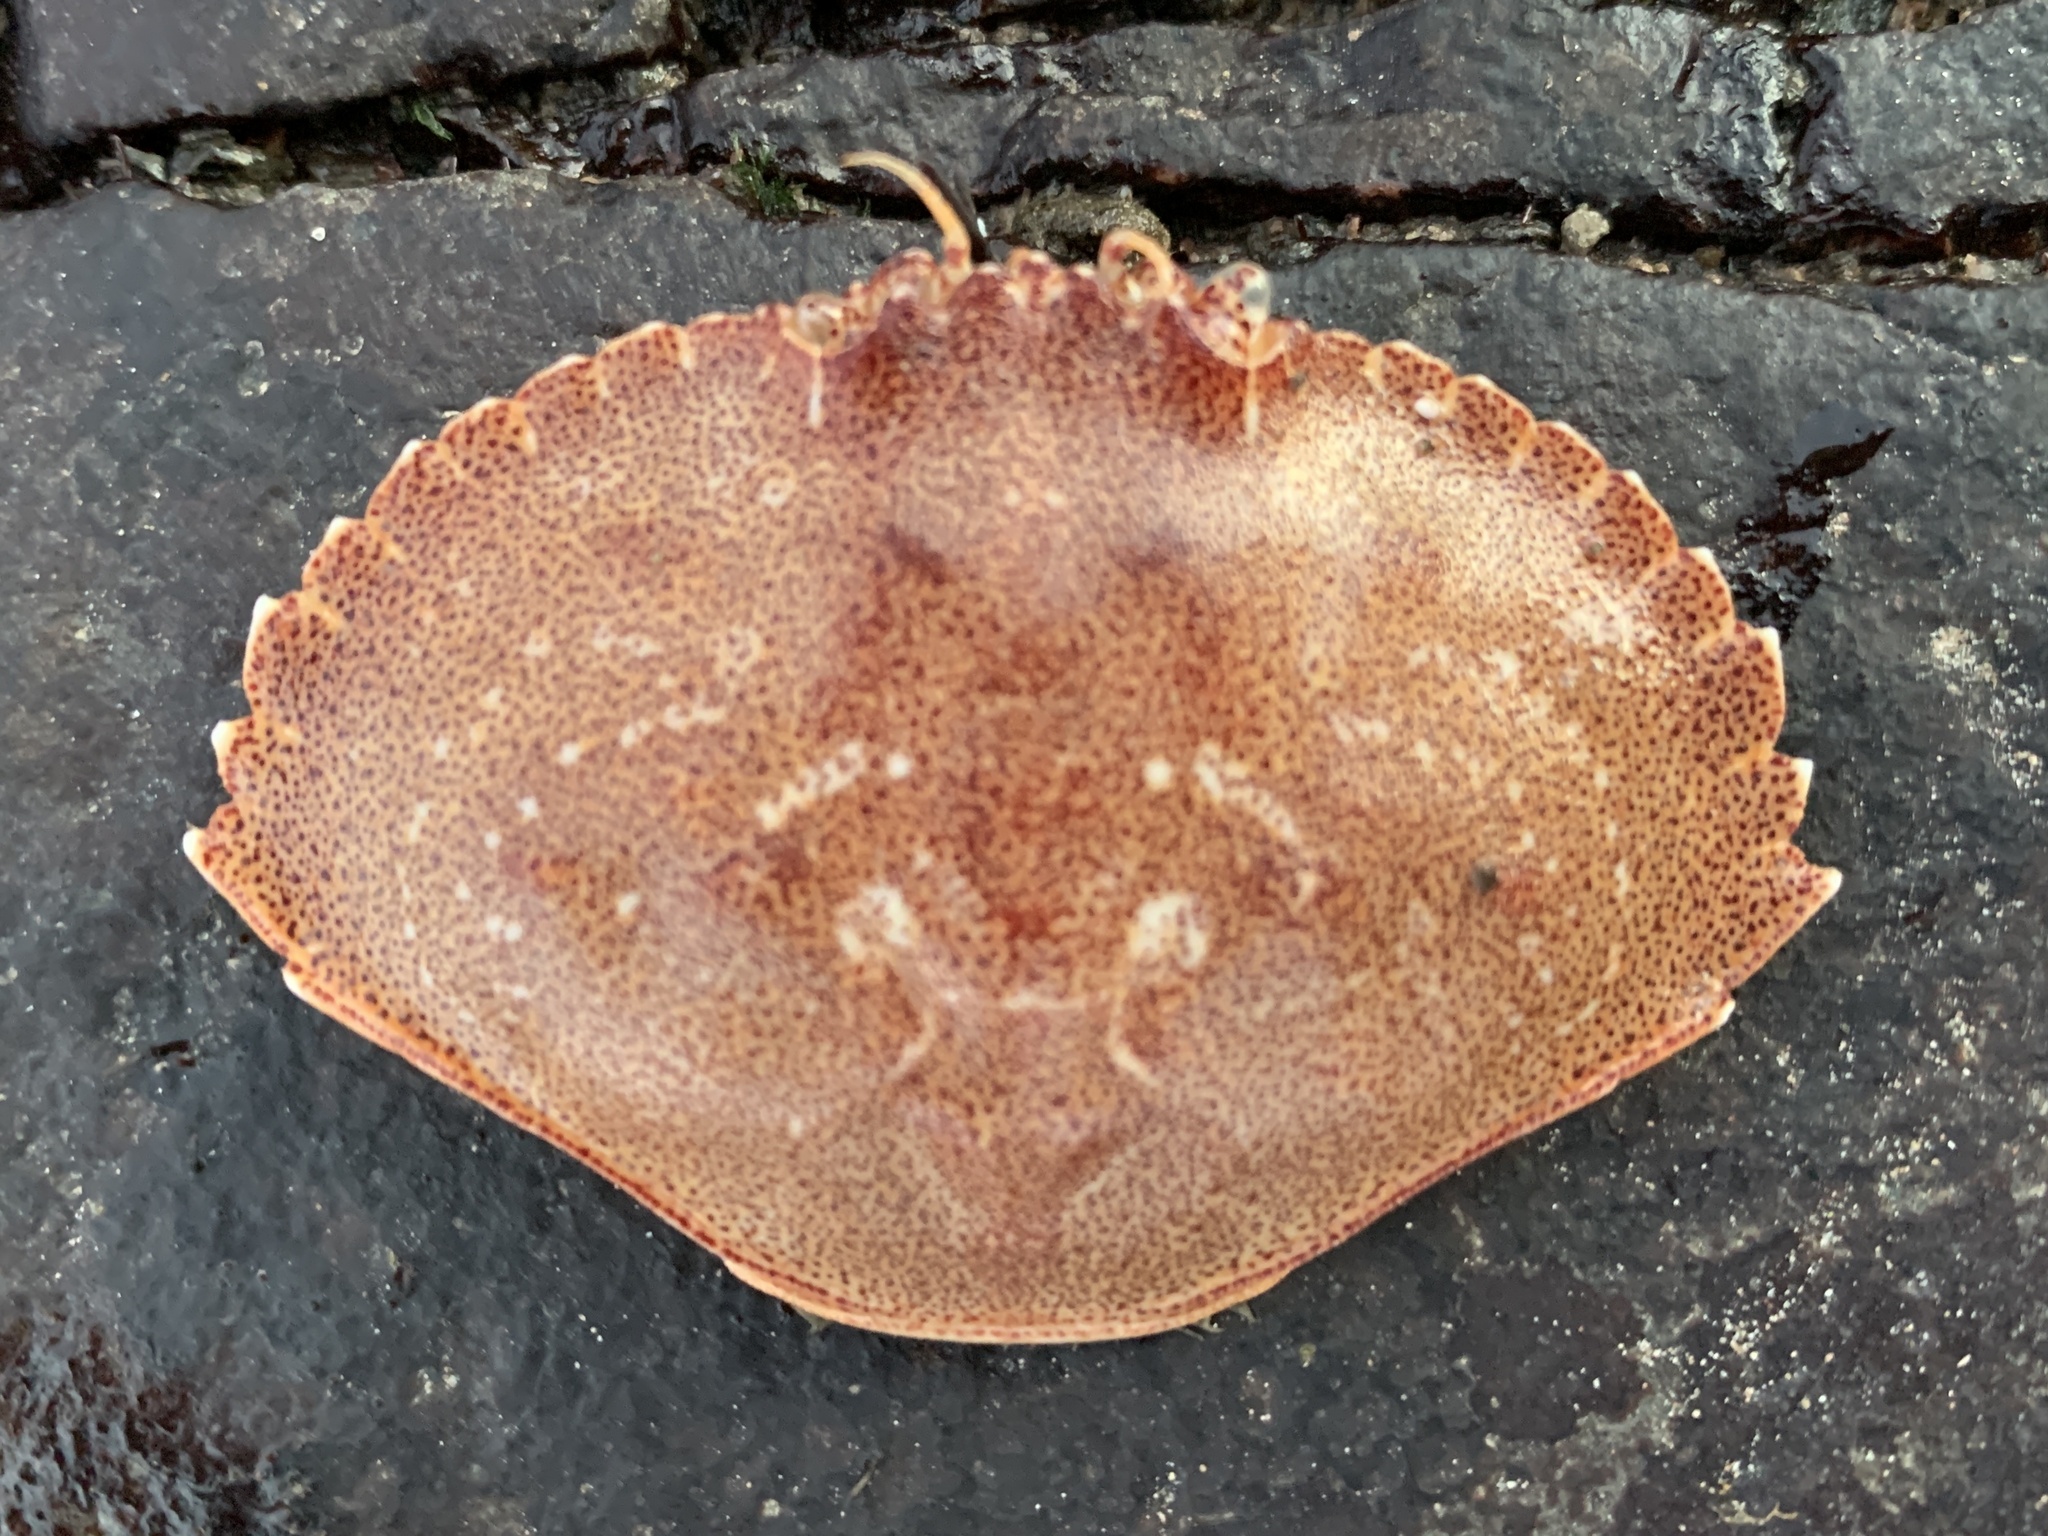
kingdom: Animalia
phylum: Arthropoda
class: Malacostraca
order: Decapoda
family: Cancridae
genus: Cancer
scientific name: Cancer irroratus
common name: Atlantic rock crab
